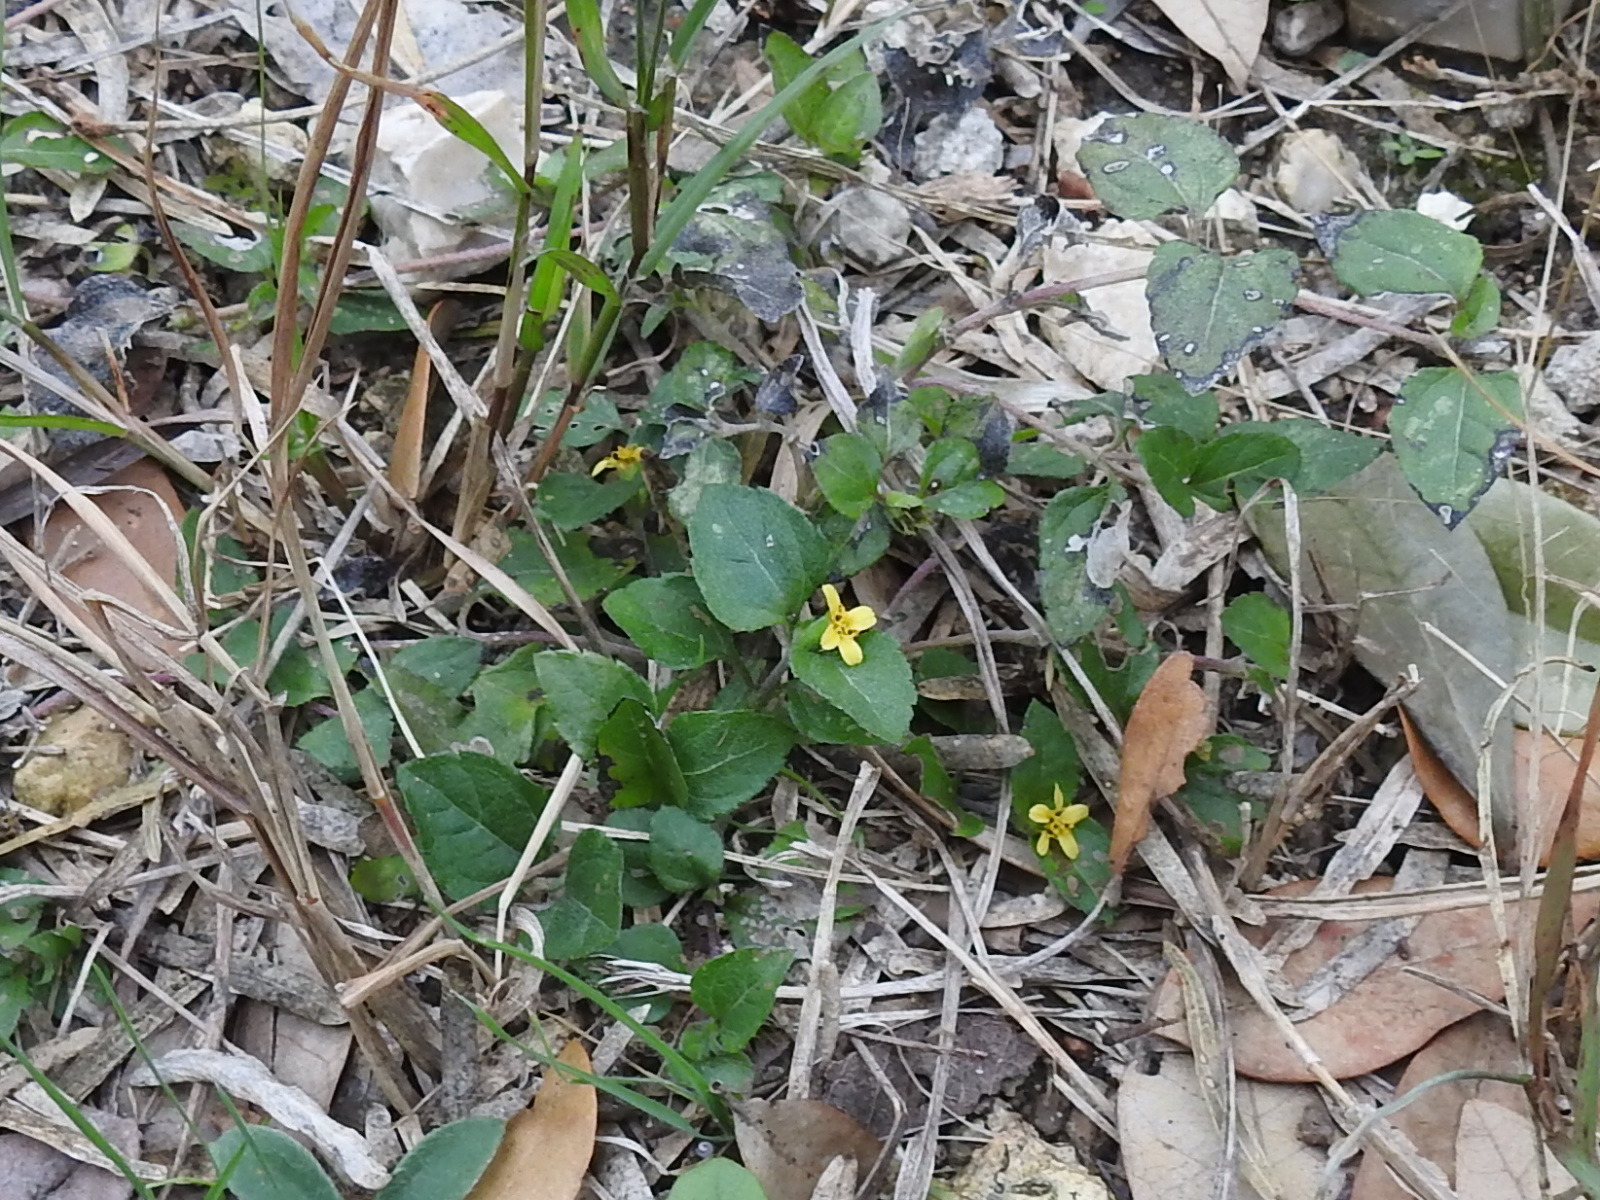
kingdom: Plantae
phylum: Tracheophyta
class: Magnoliopsida
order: Asterales
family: Asteraceae
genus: Calyptocarpus
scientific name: Calyptocarpus vialis
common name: Straggler daisy
